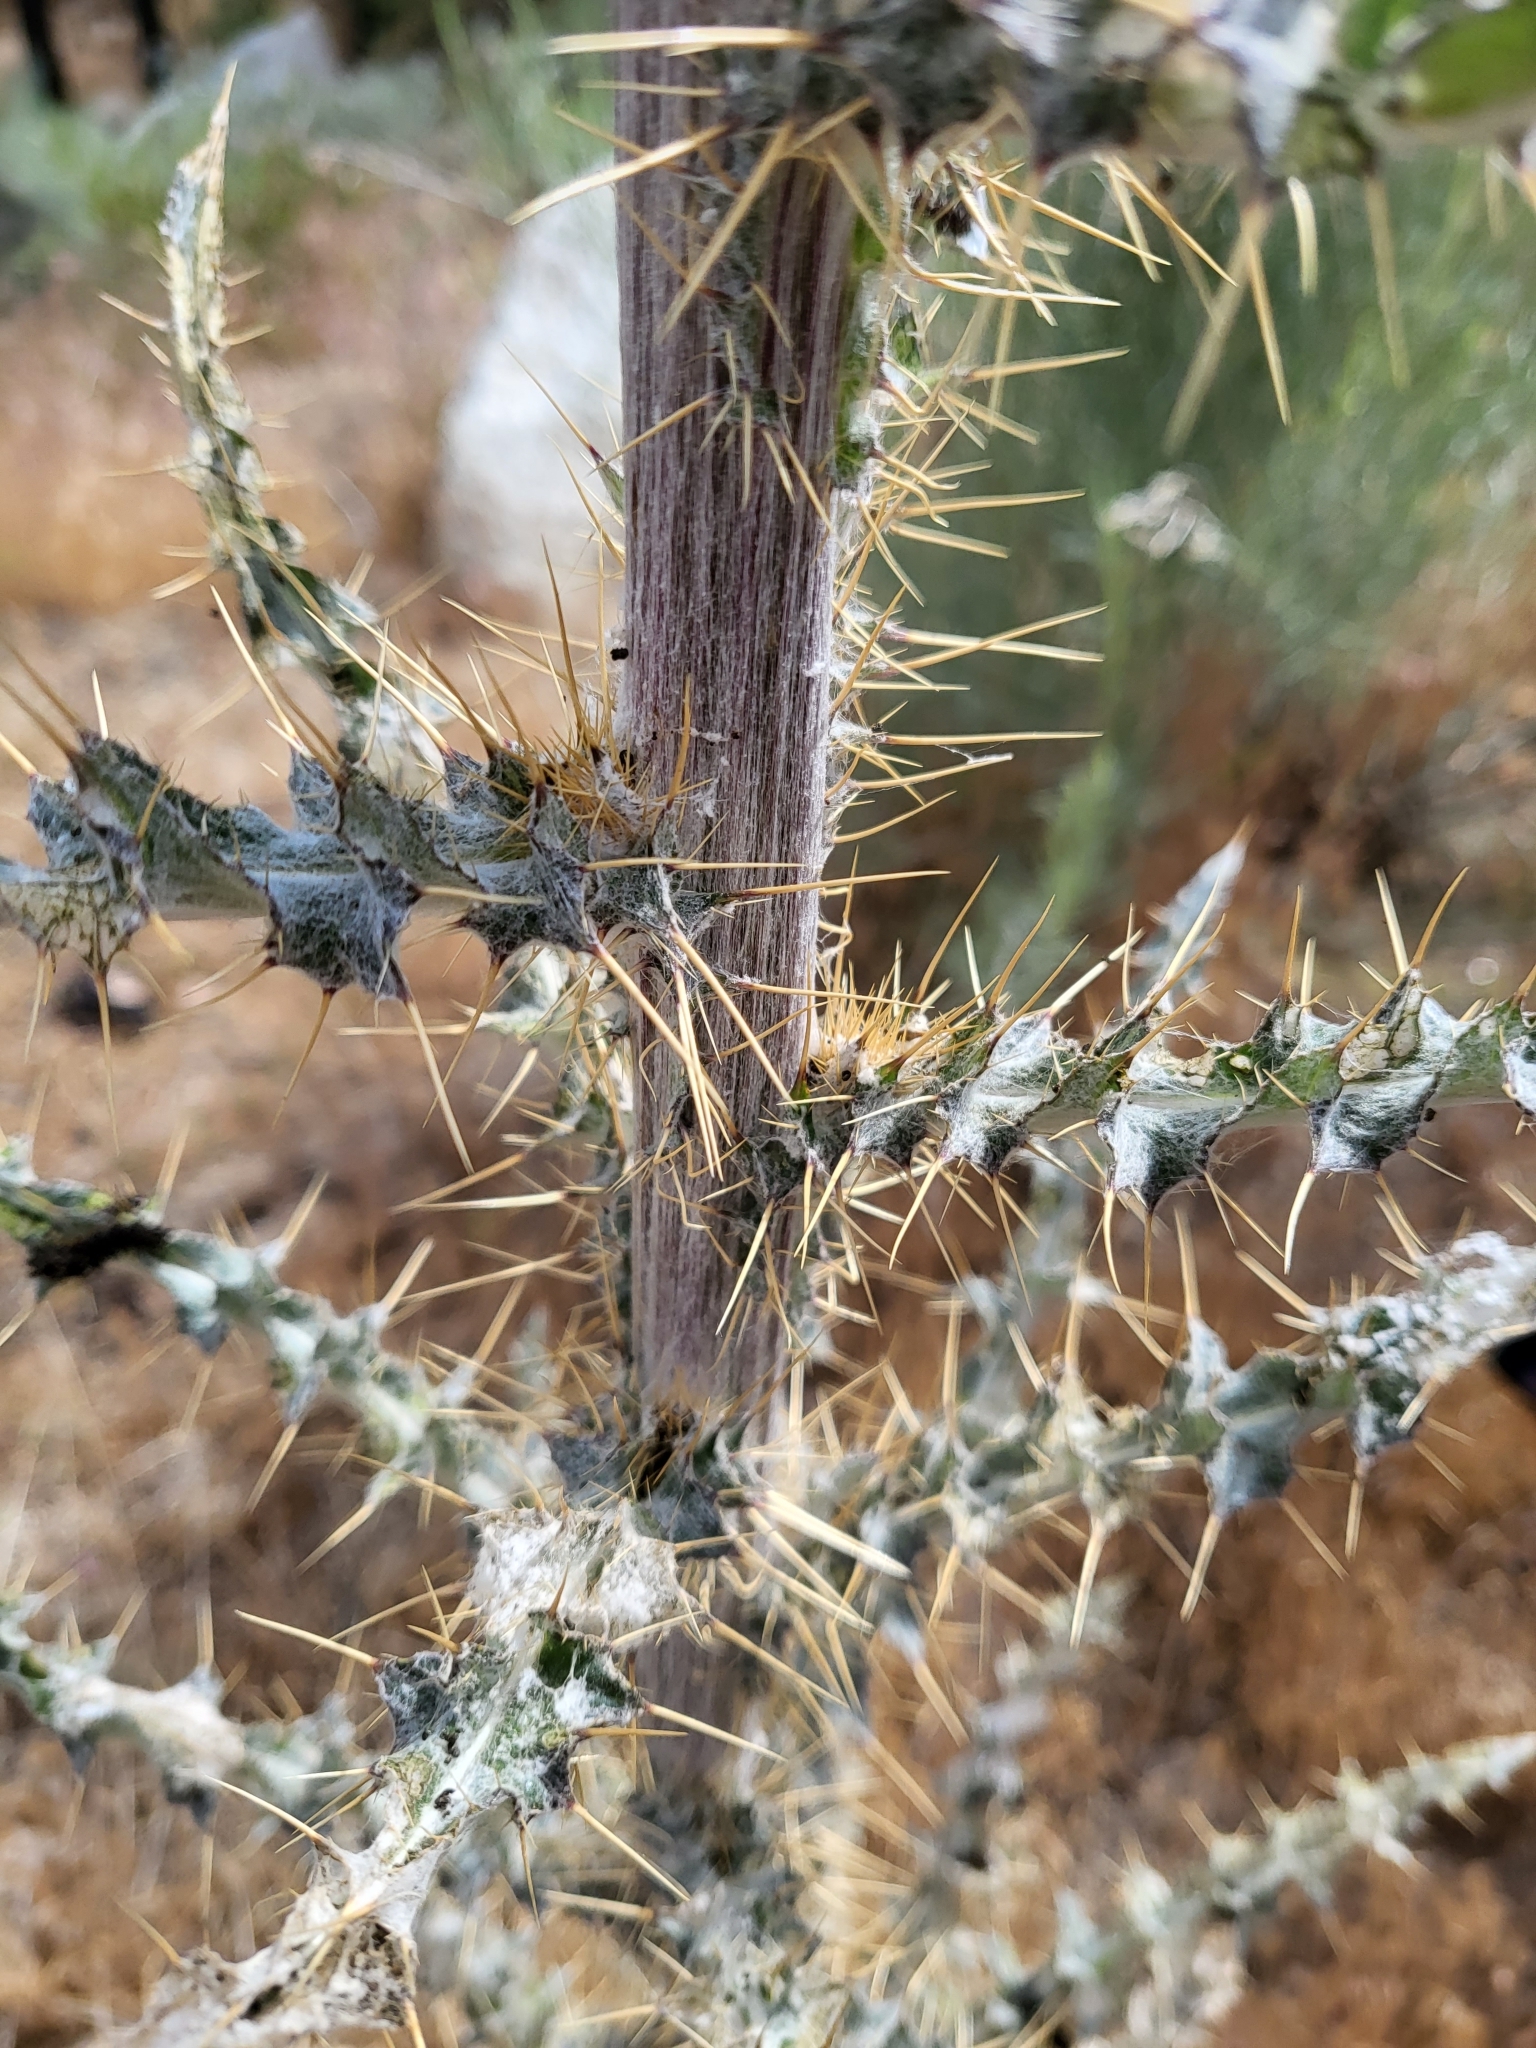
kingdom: Plantae
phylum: Tracheophyta
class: Magnoliopsida
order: Asterales
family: Asteraceae
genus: Cirsium
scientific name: Cirsium occidentale
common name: Western thistle
